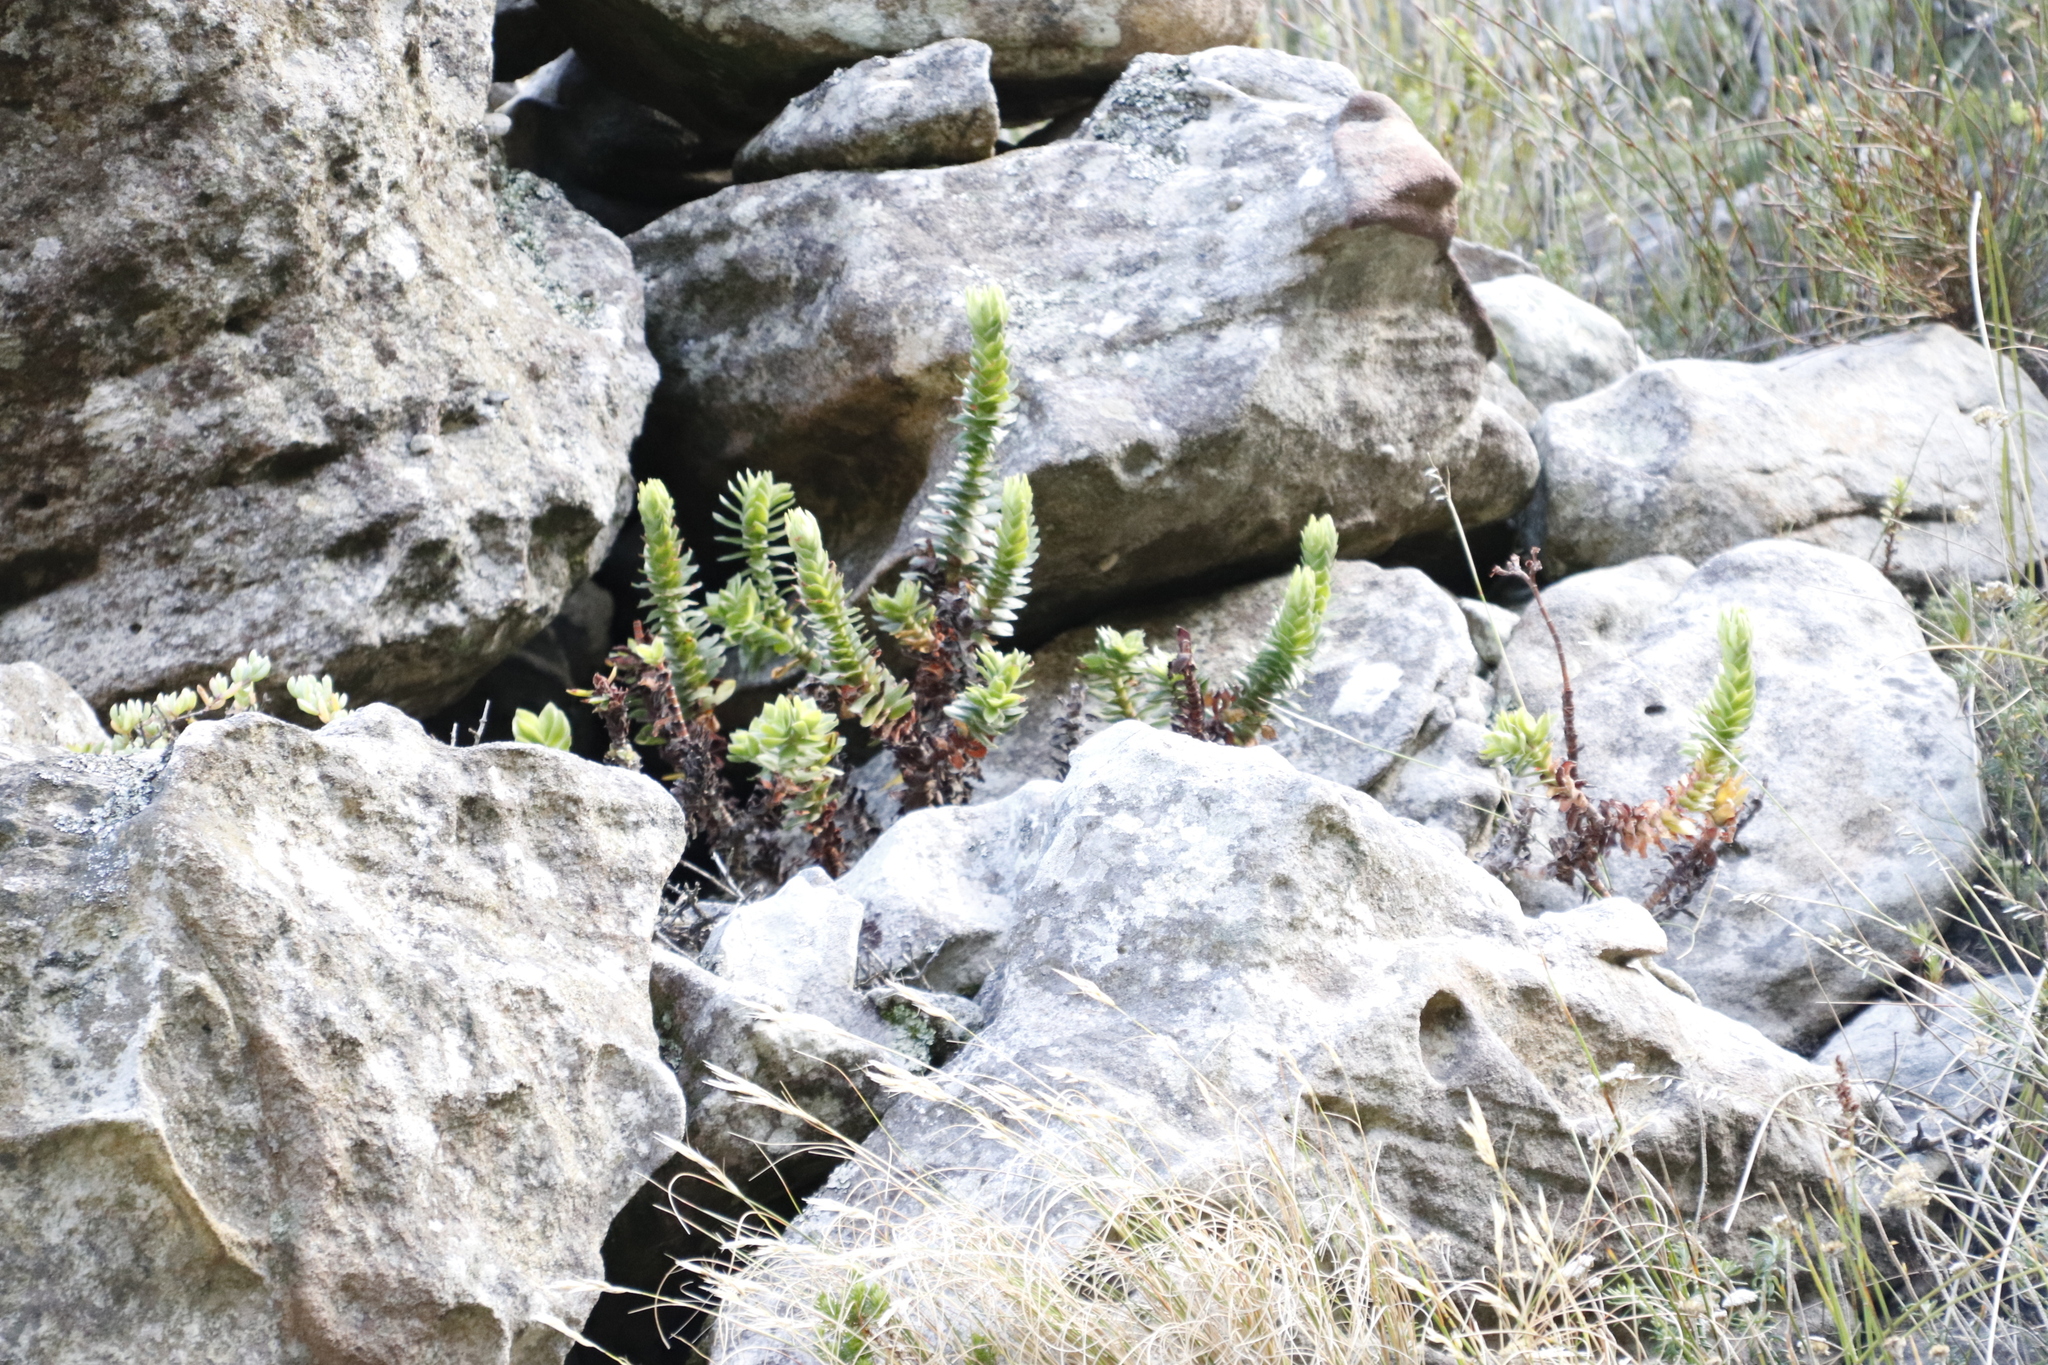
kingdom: Plantae
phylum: Tracheophyta
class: Magnoliopsida
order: Saxifragales
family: Crassulaceae
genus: Crassula
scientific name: Crassula coccinea
